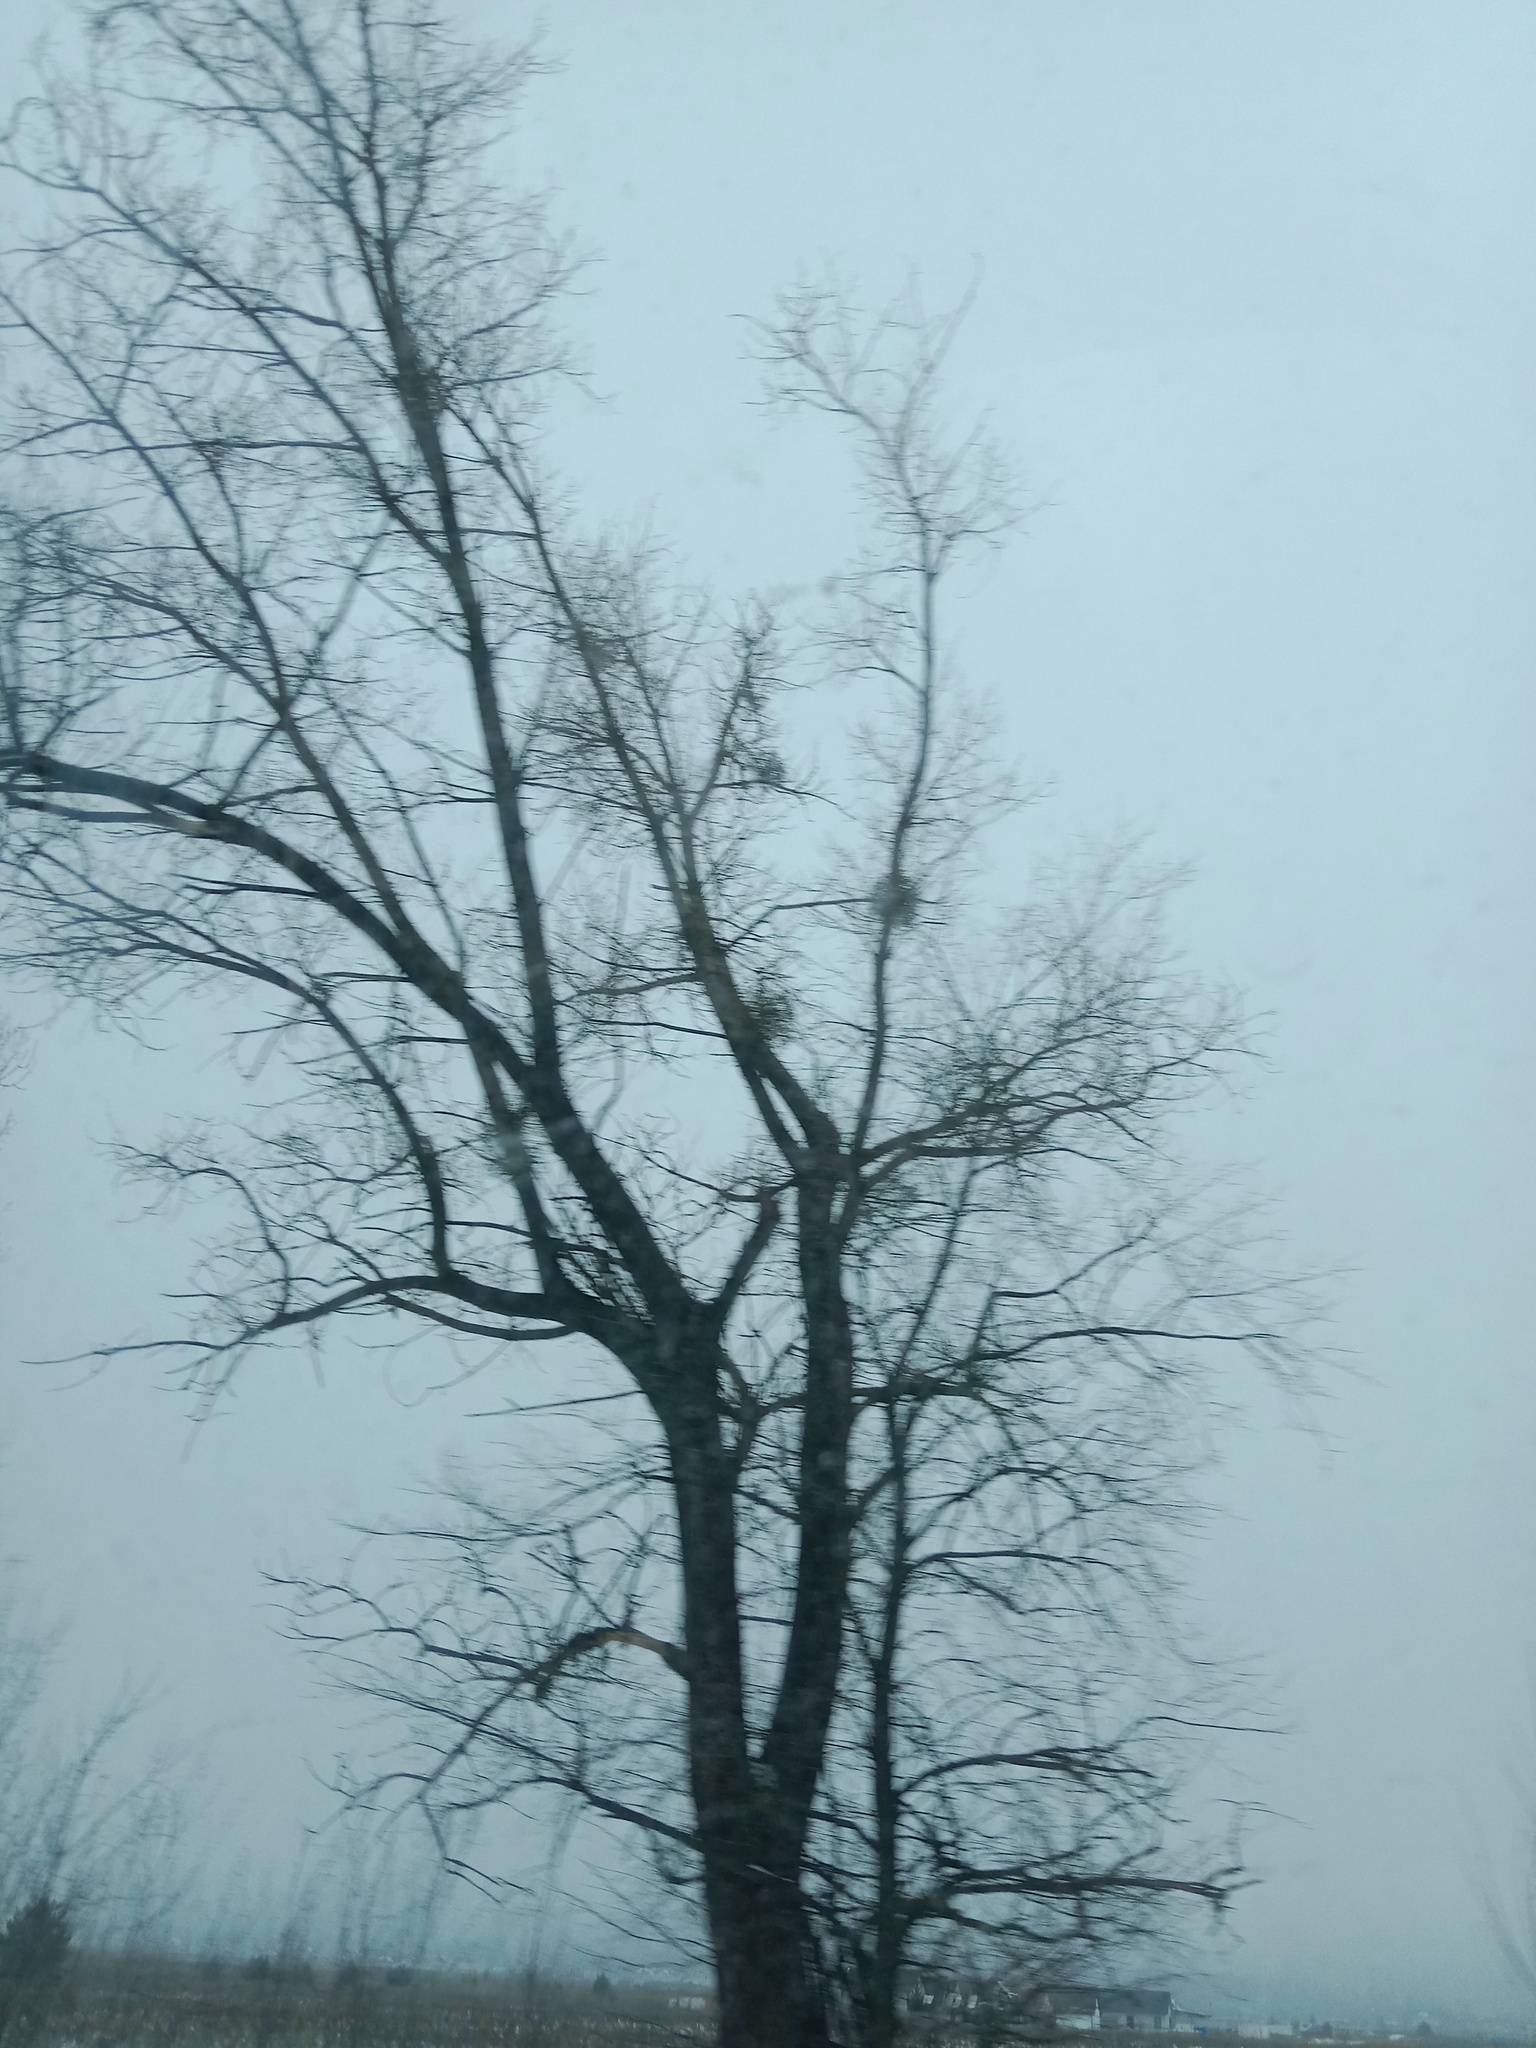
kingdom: Plantae
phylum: Tracheophyta
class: Magnoliopsida
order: Santalales
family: Viscaceae
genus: Viscum
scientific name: Viscum album
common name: Mistletoe
